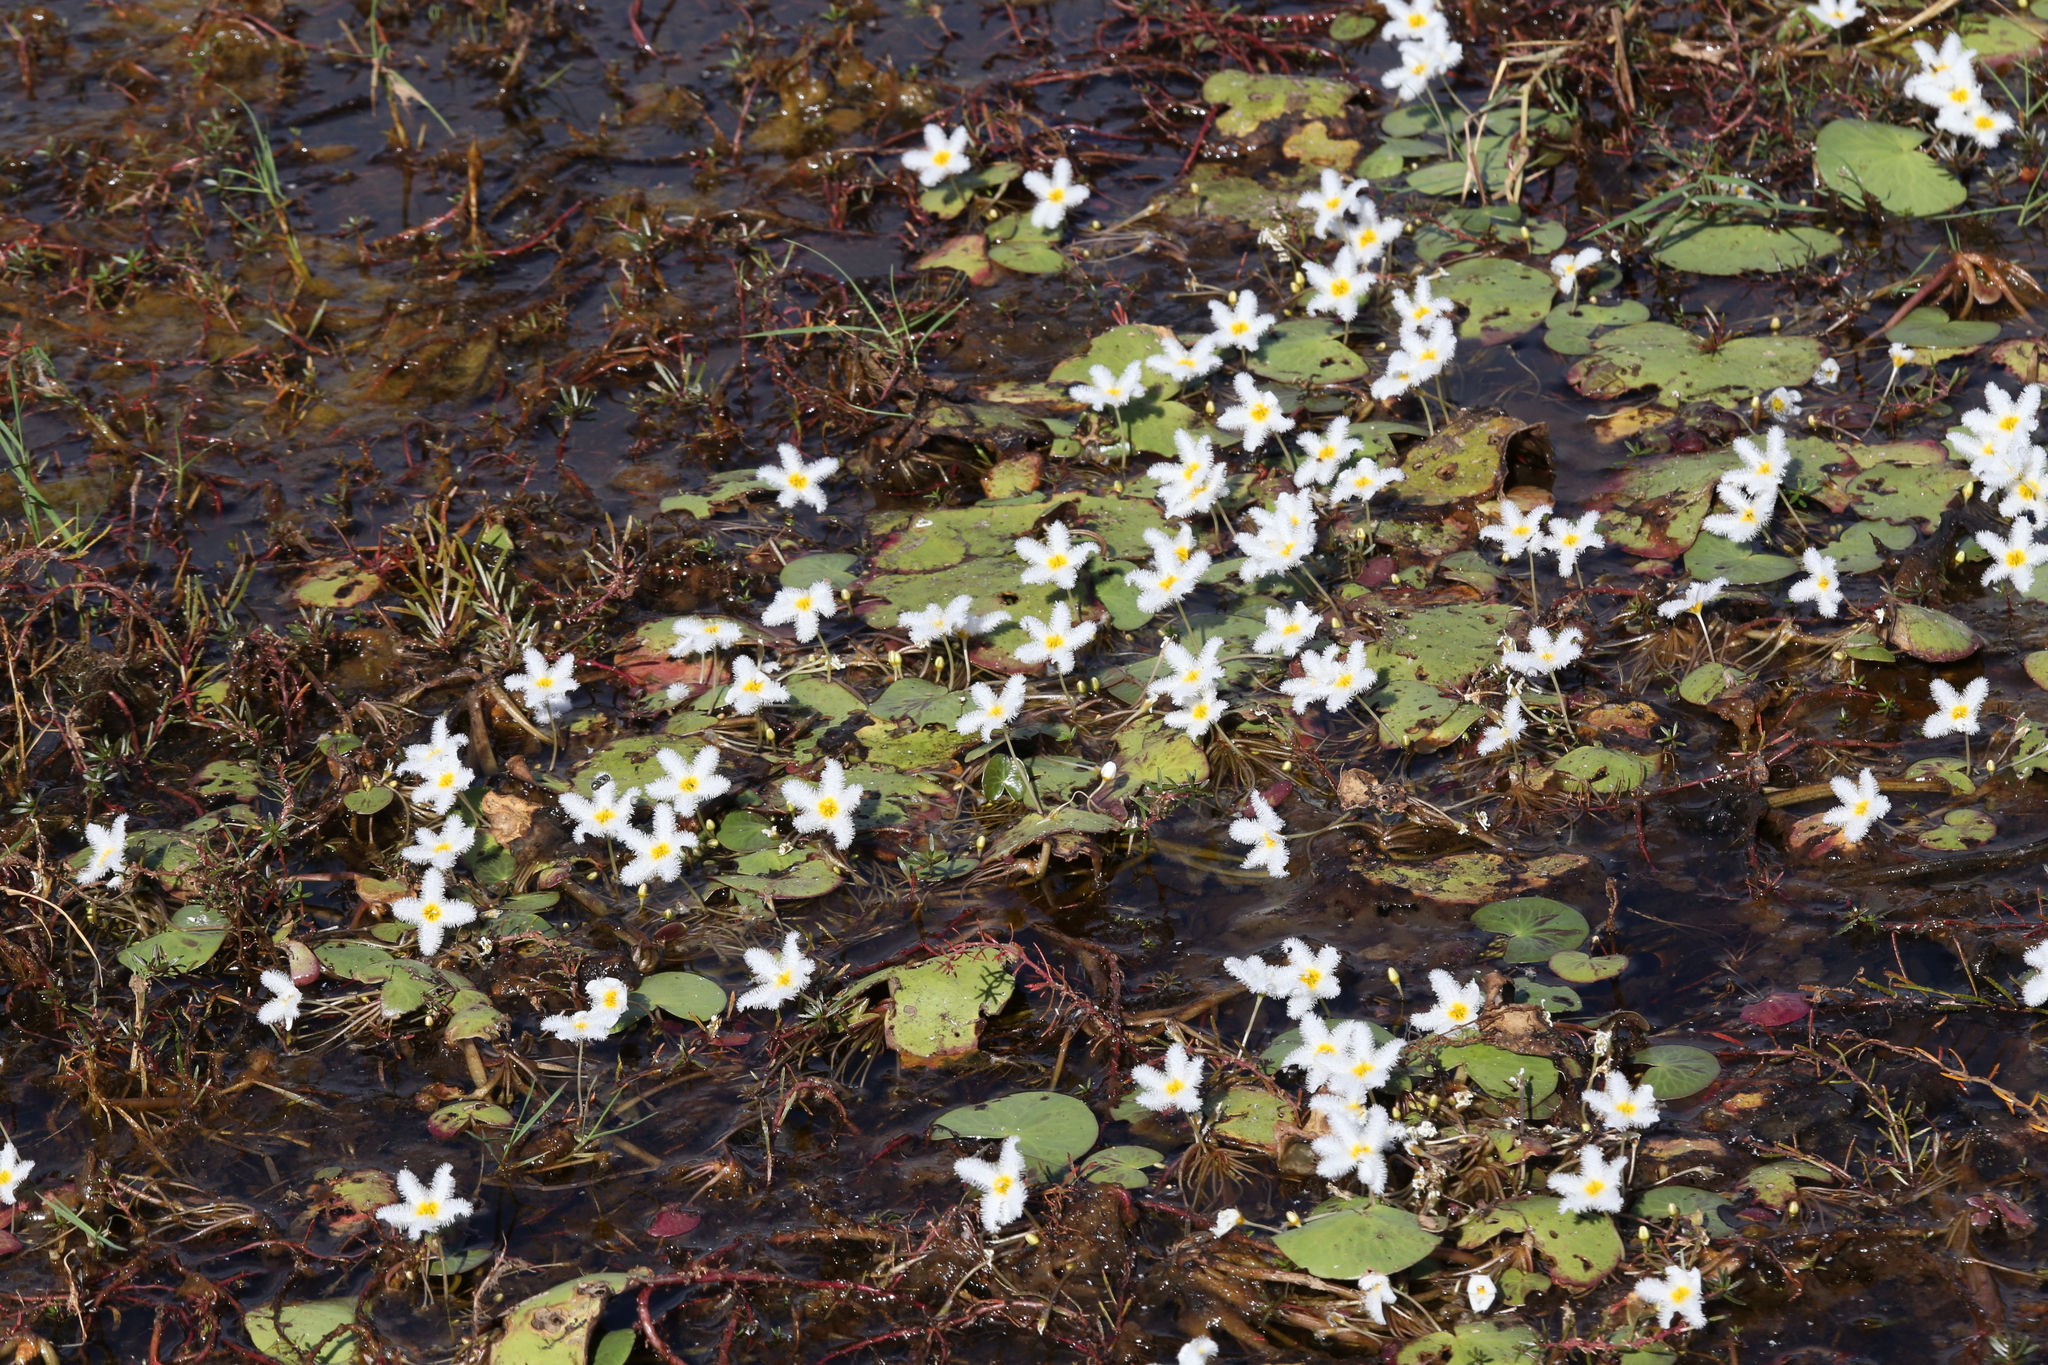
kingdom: Plantae
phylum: Tracheophyta
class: Magnoliopsida
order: Asterales
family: Menyanthaceae
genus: Nymphoides
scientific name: Nymphoides indica
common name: Water-snowflake
